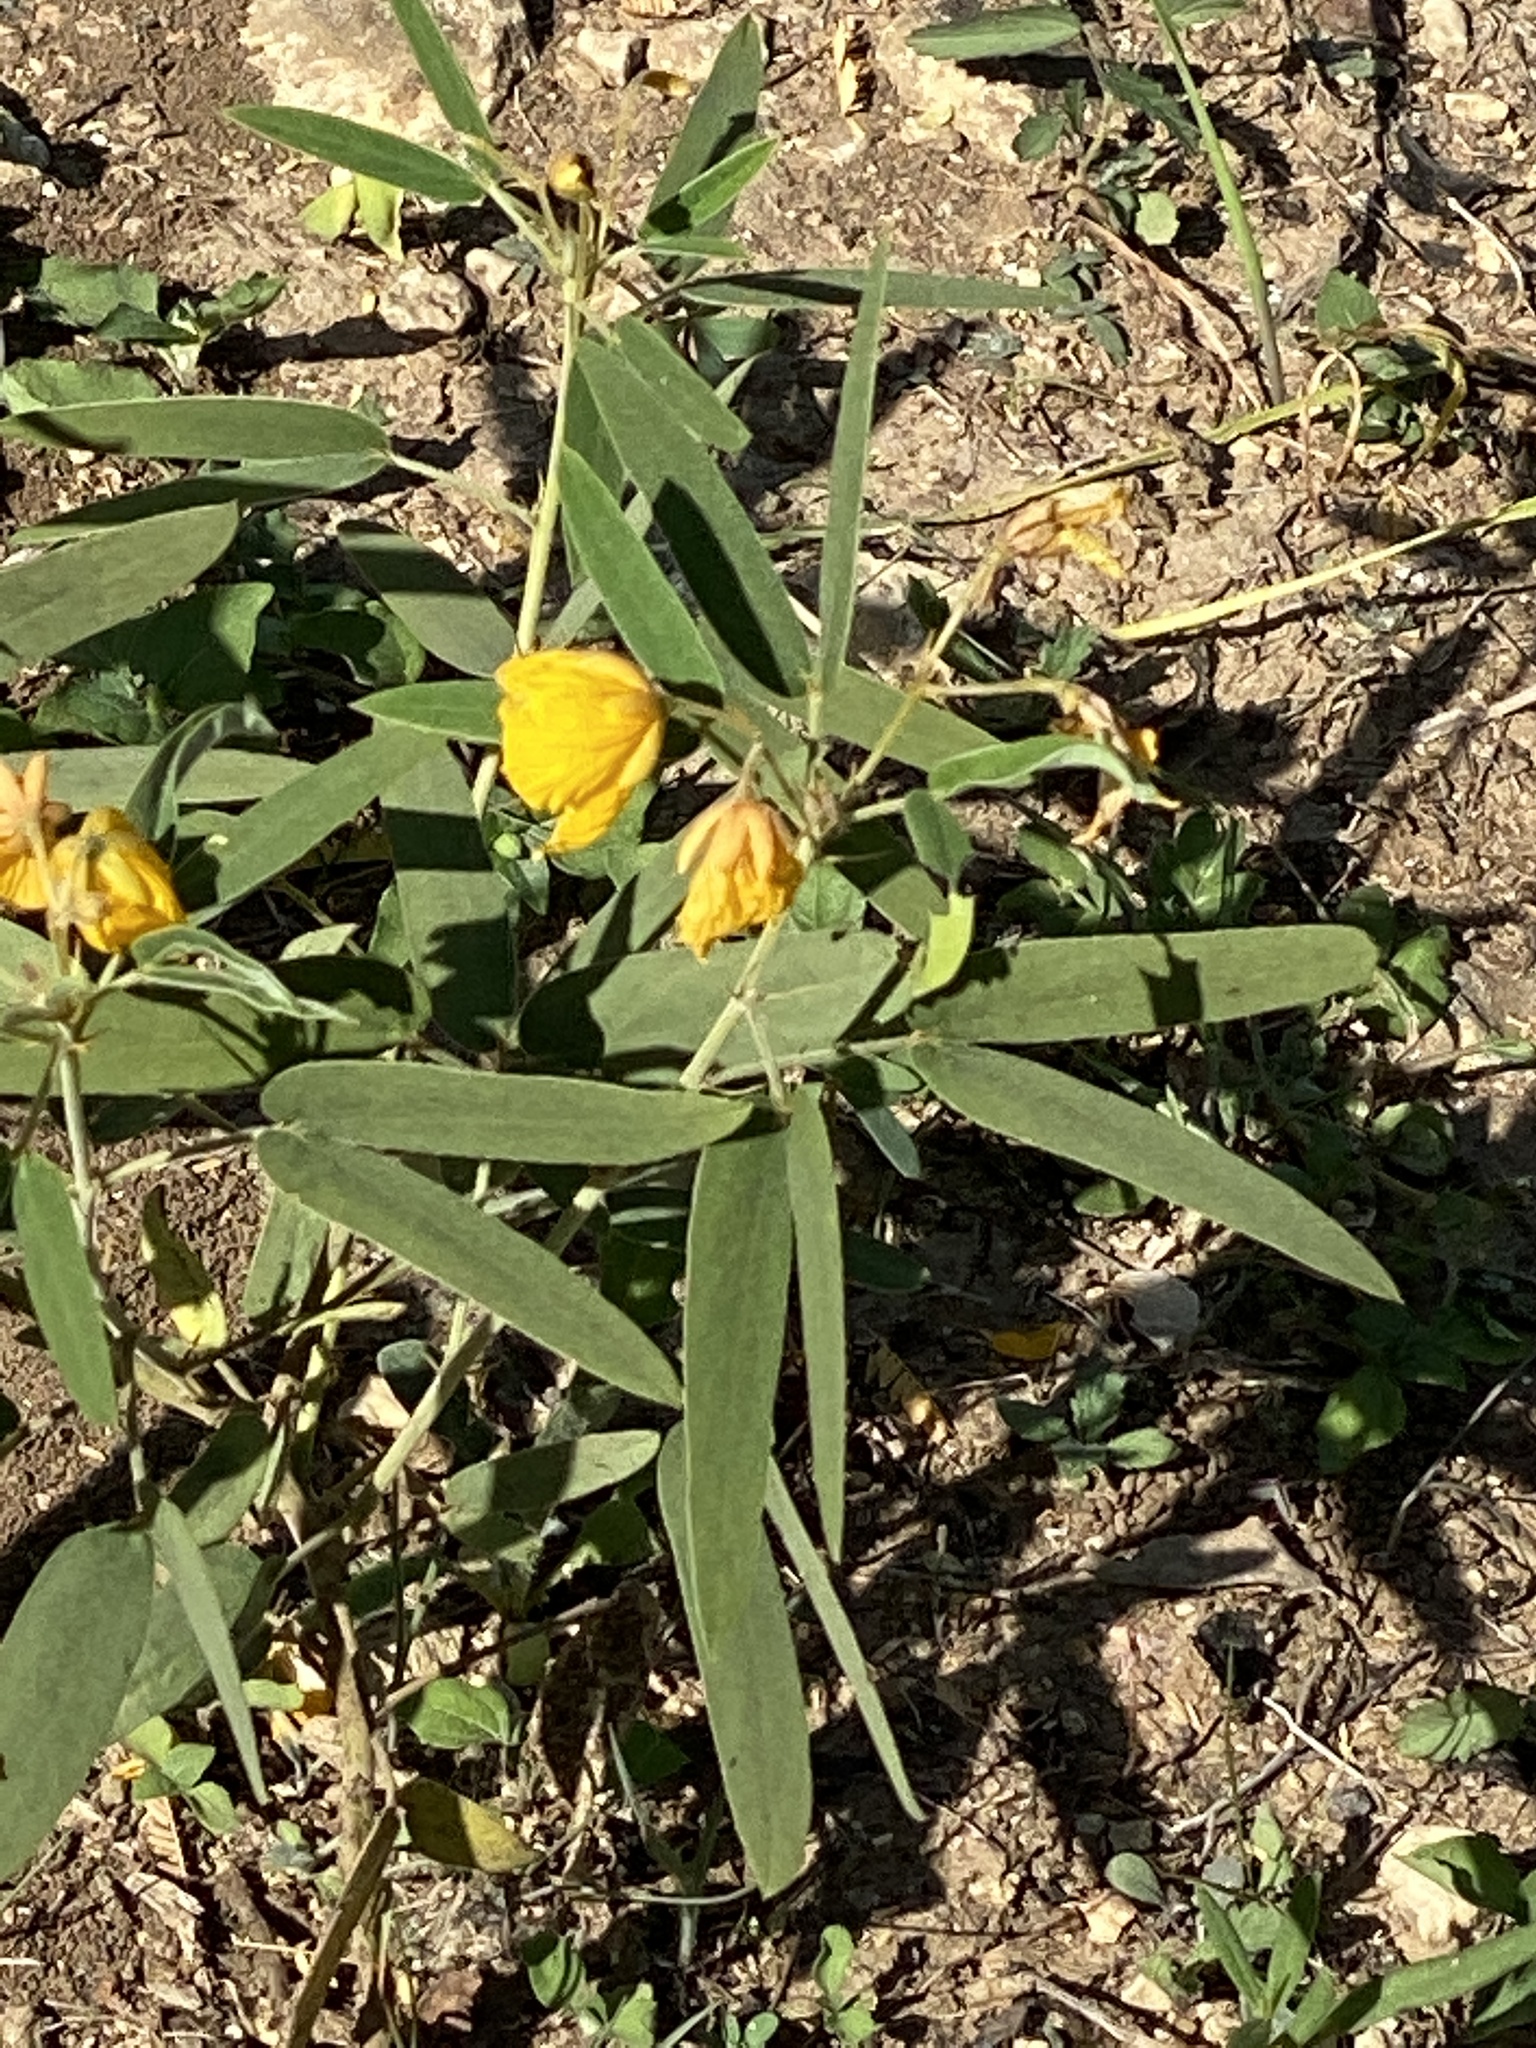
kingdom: Plantae
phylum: Tracheophyta
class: Magnoliopsida
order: Fabales
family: Fabaceae
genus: Senna
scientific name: Senna roemeriana
